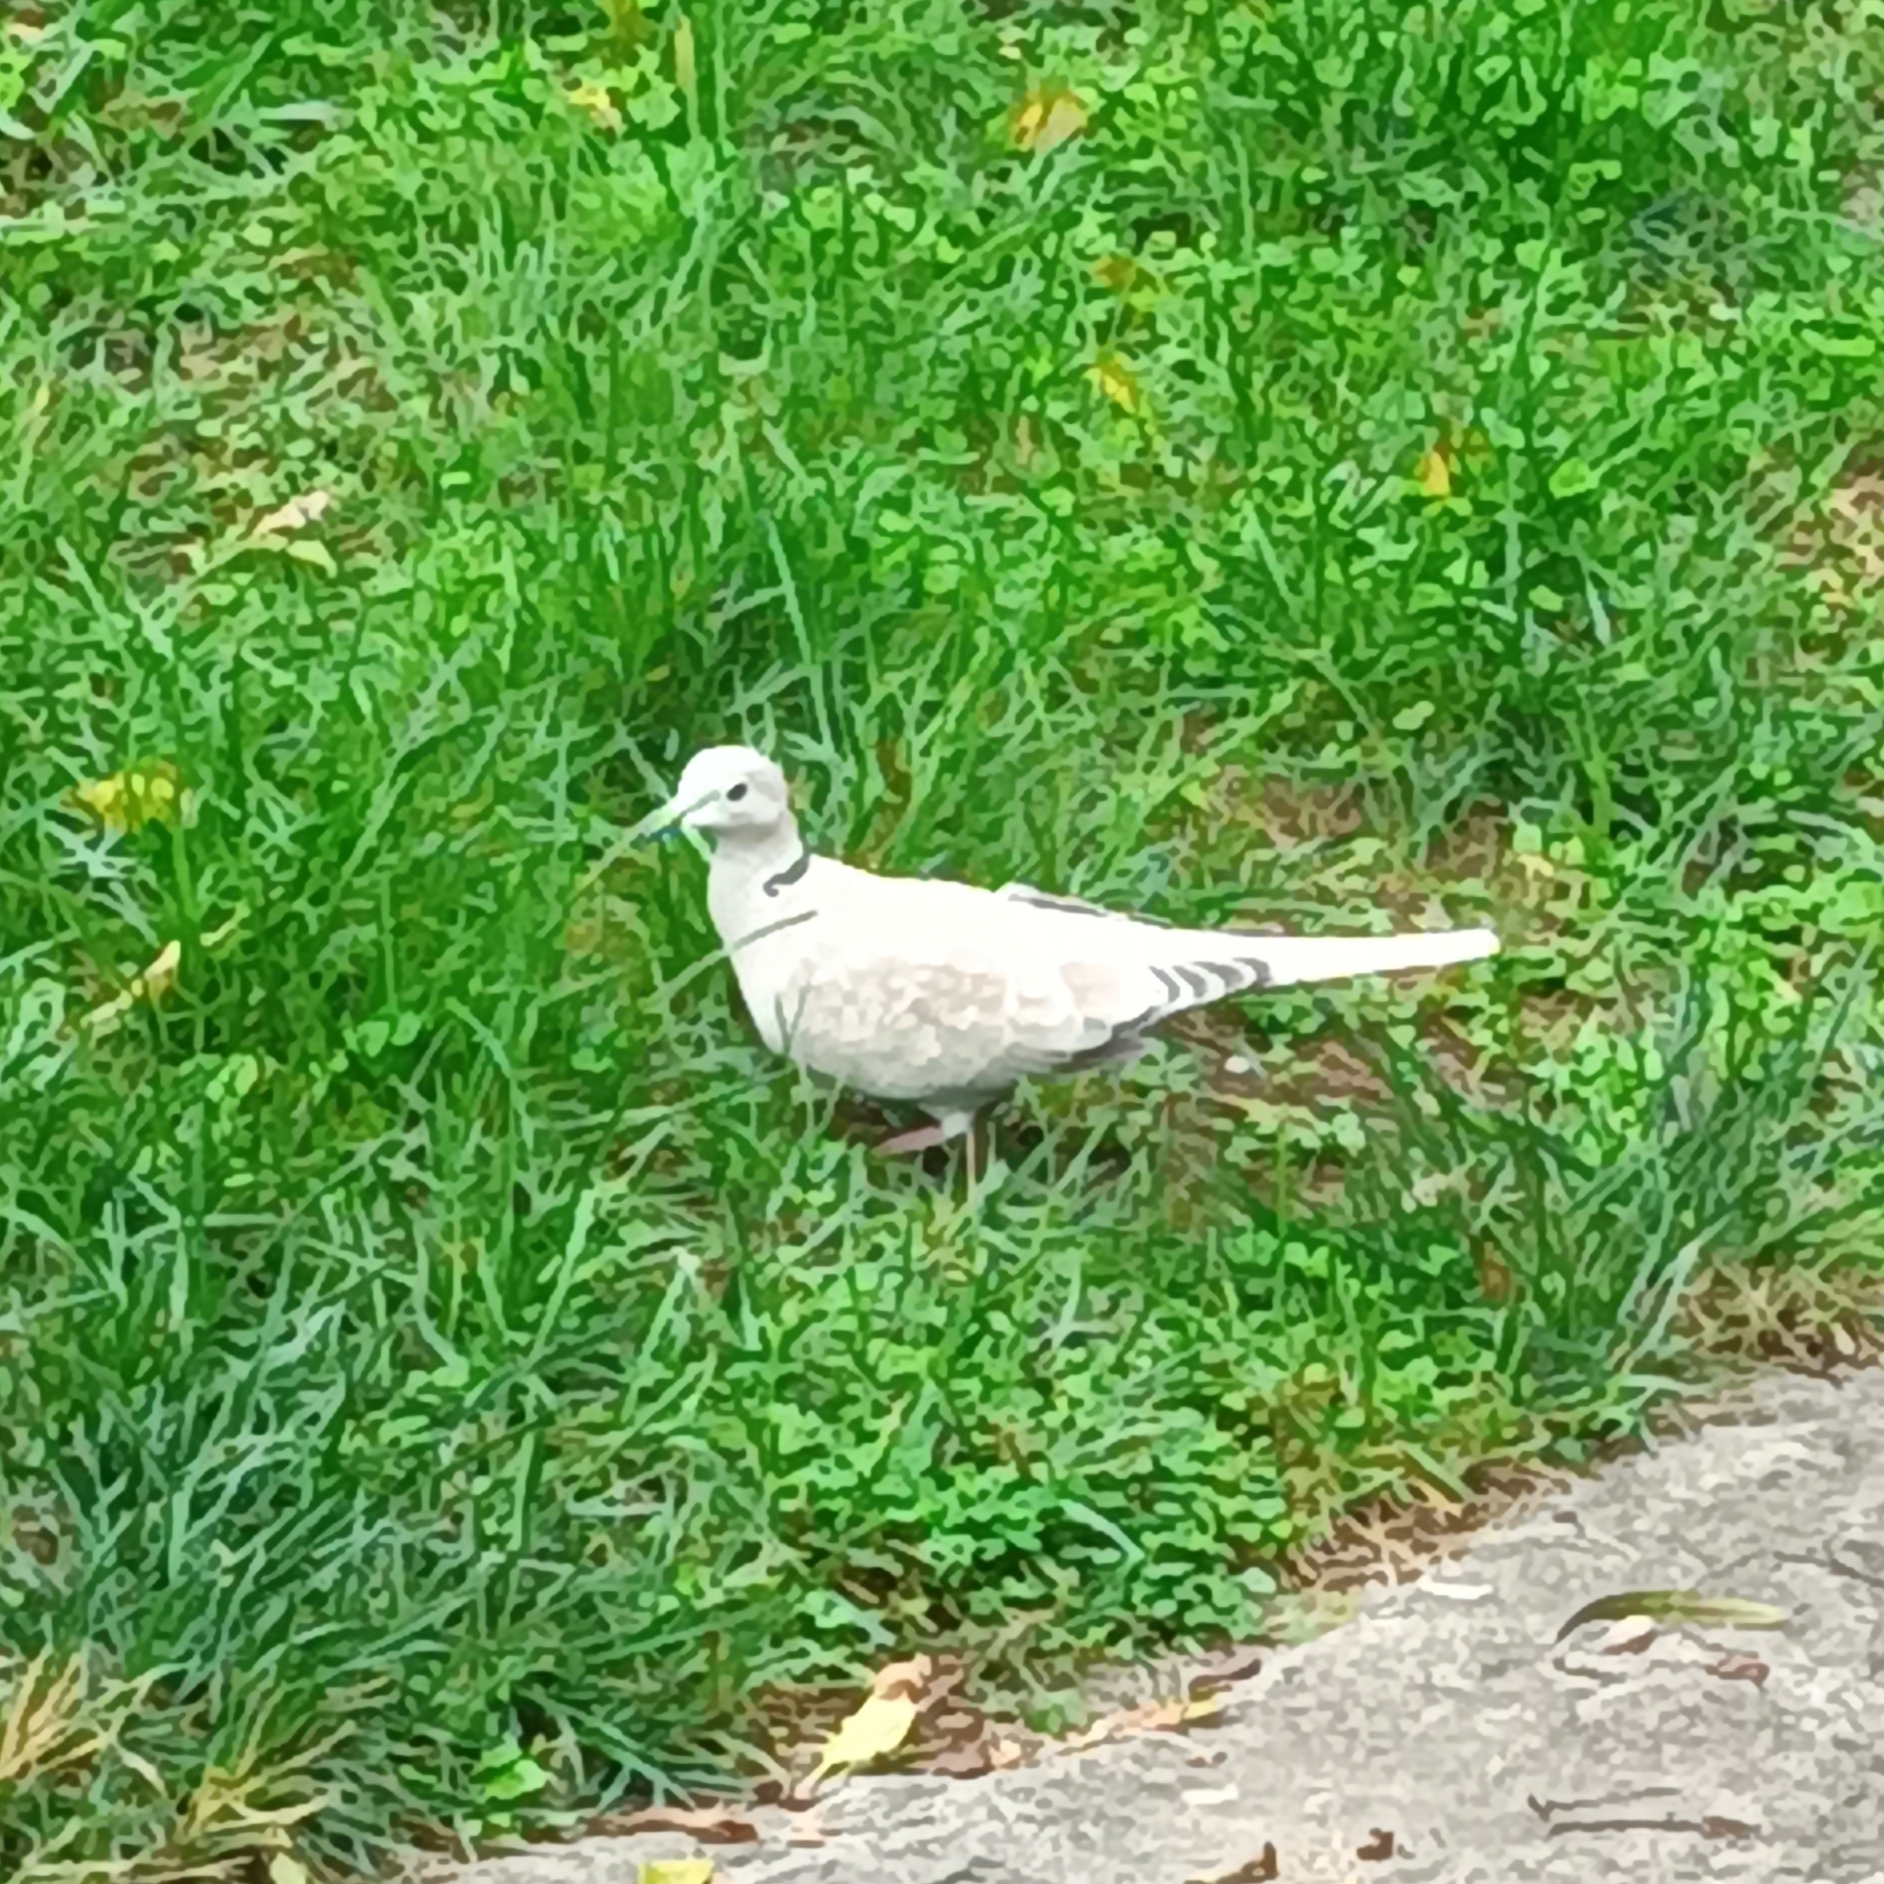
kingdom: Animalia
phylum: Chordata
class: Aves
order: Columbiformes
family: Columbidae
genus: Streptopelia
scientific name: Streptopelia decaocto
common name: Eurasian collared dove
